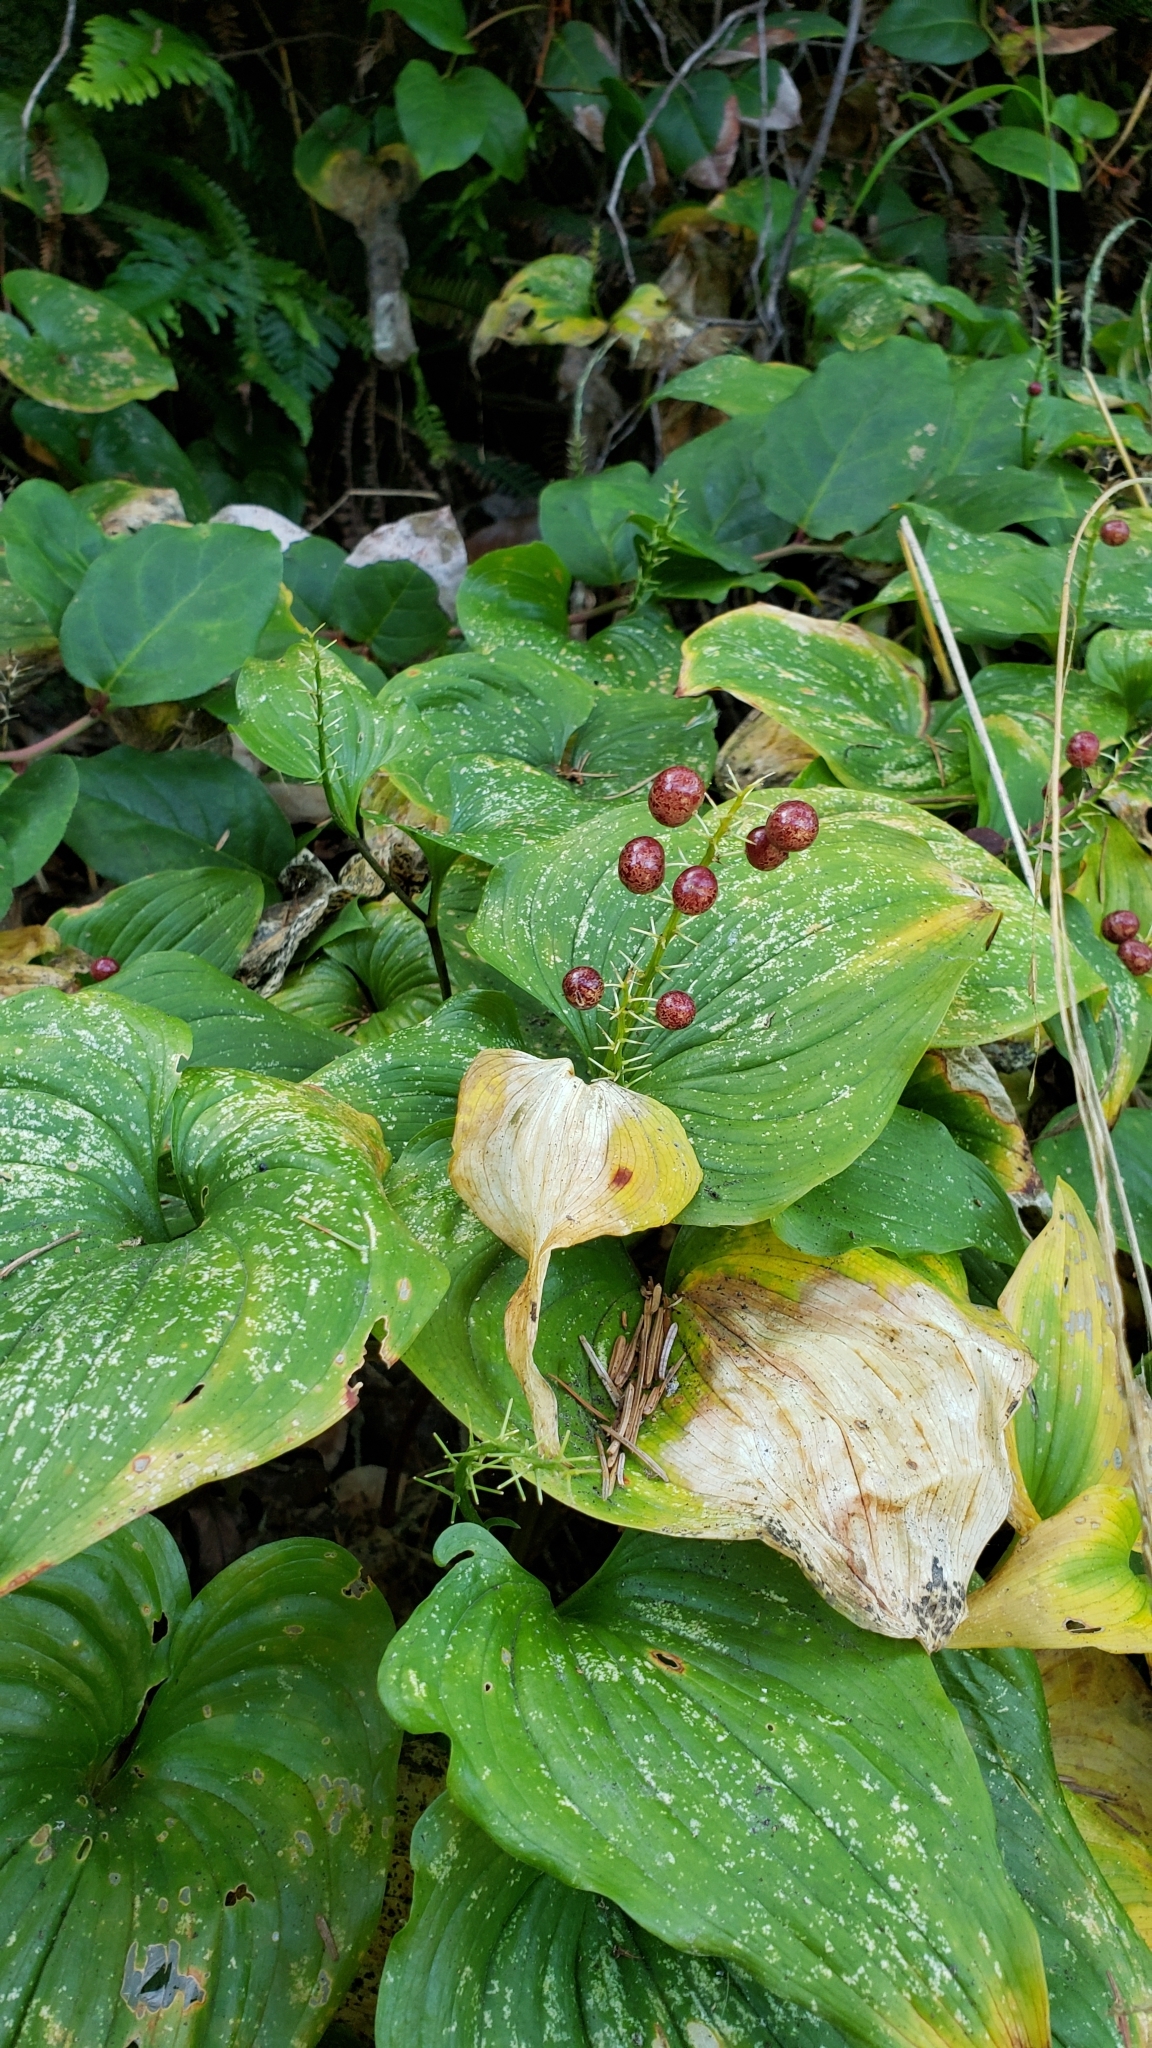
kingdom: Plantae
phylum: Tracheophyta
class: Liliopsida
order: Asparagales
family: Asparagaceae
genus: Maianthemum
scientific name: Maianthemum dilatatum
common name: False lily-of-the-valley
